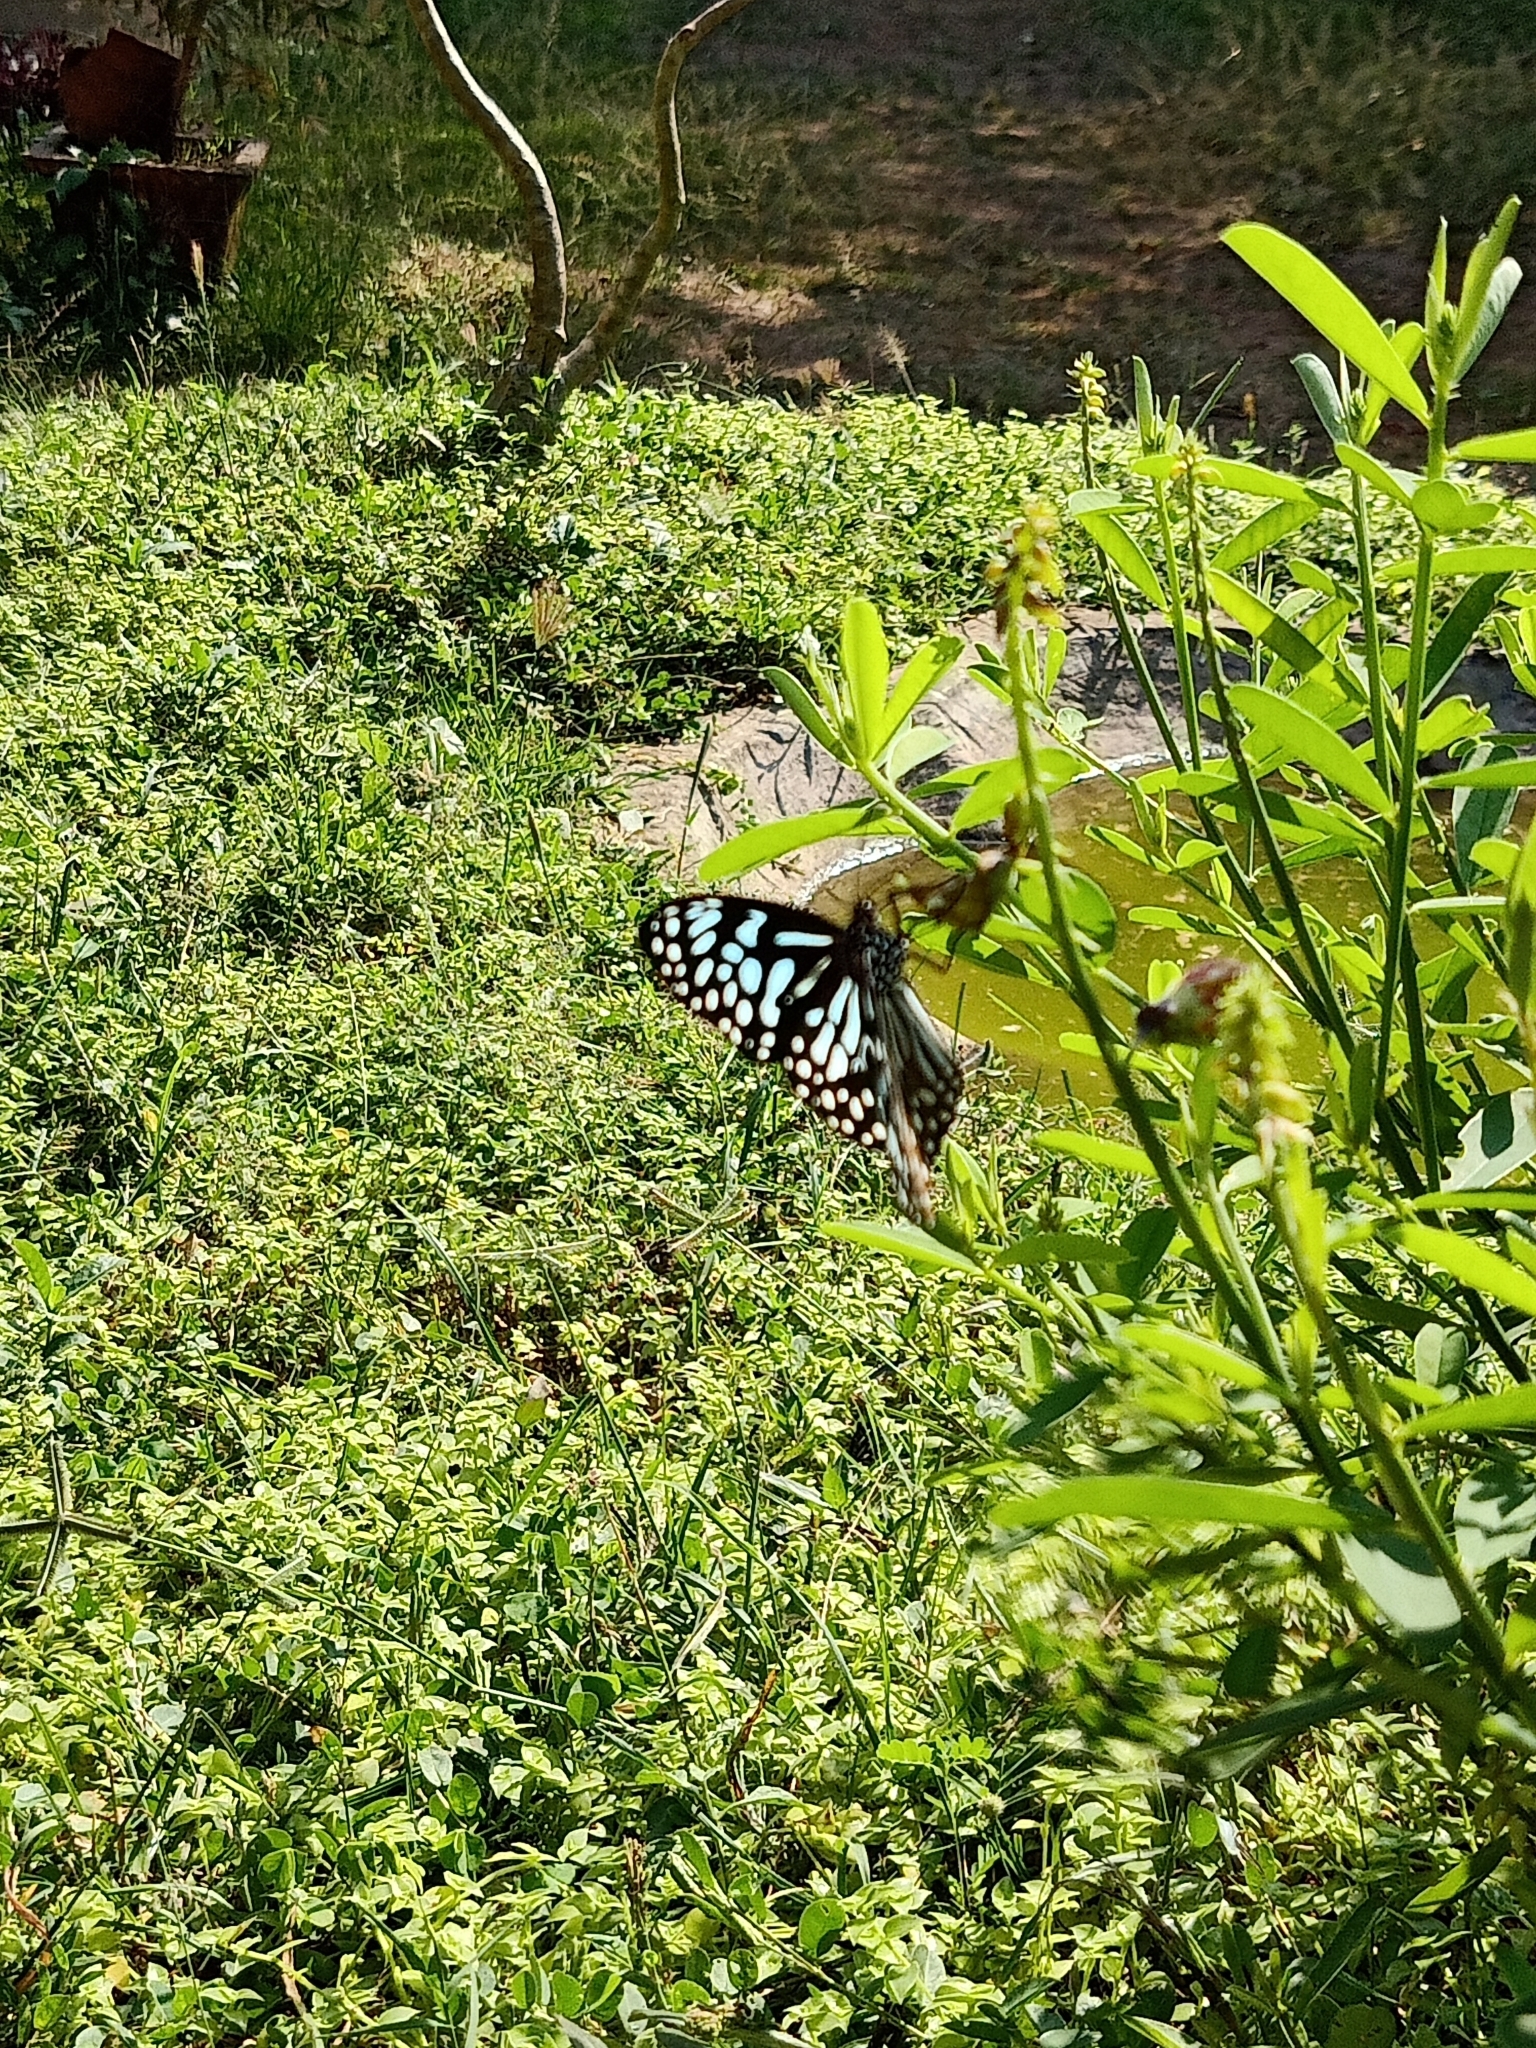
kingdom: Animalia
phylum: Arthropoda
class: Insecta
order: Lepidoptera
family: Nymphalidae
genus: Tirumala
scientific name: Tirumala septentrionis
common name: Dark blue tiger butterfly
